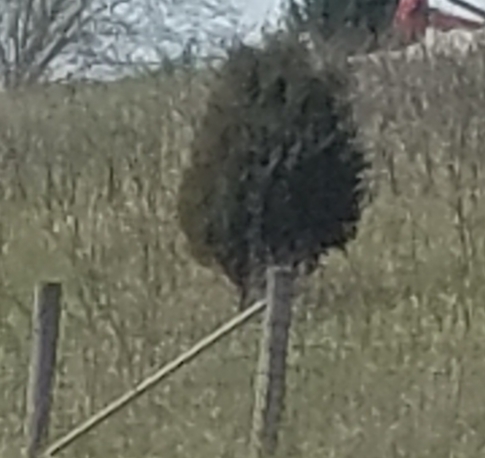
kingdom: Plantae
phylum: Tracheophyta
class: Pinopsida
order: Pinales
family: Cupressaceae
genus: Juniperus
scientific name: Juniperus virginiana
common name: Red juniper
